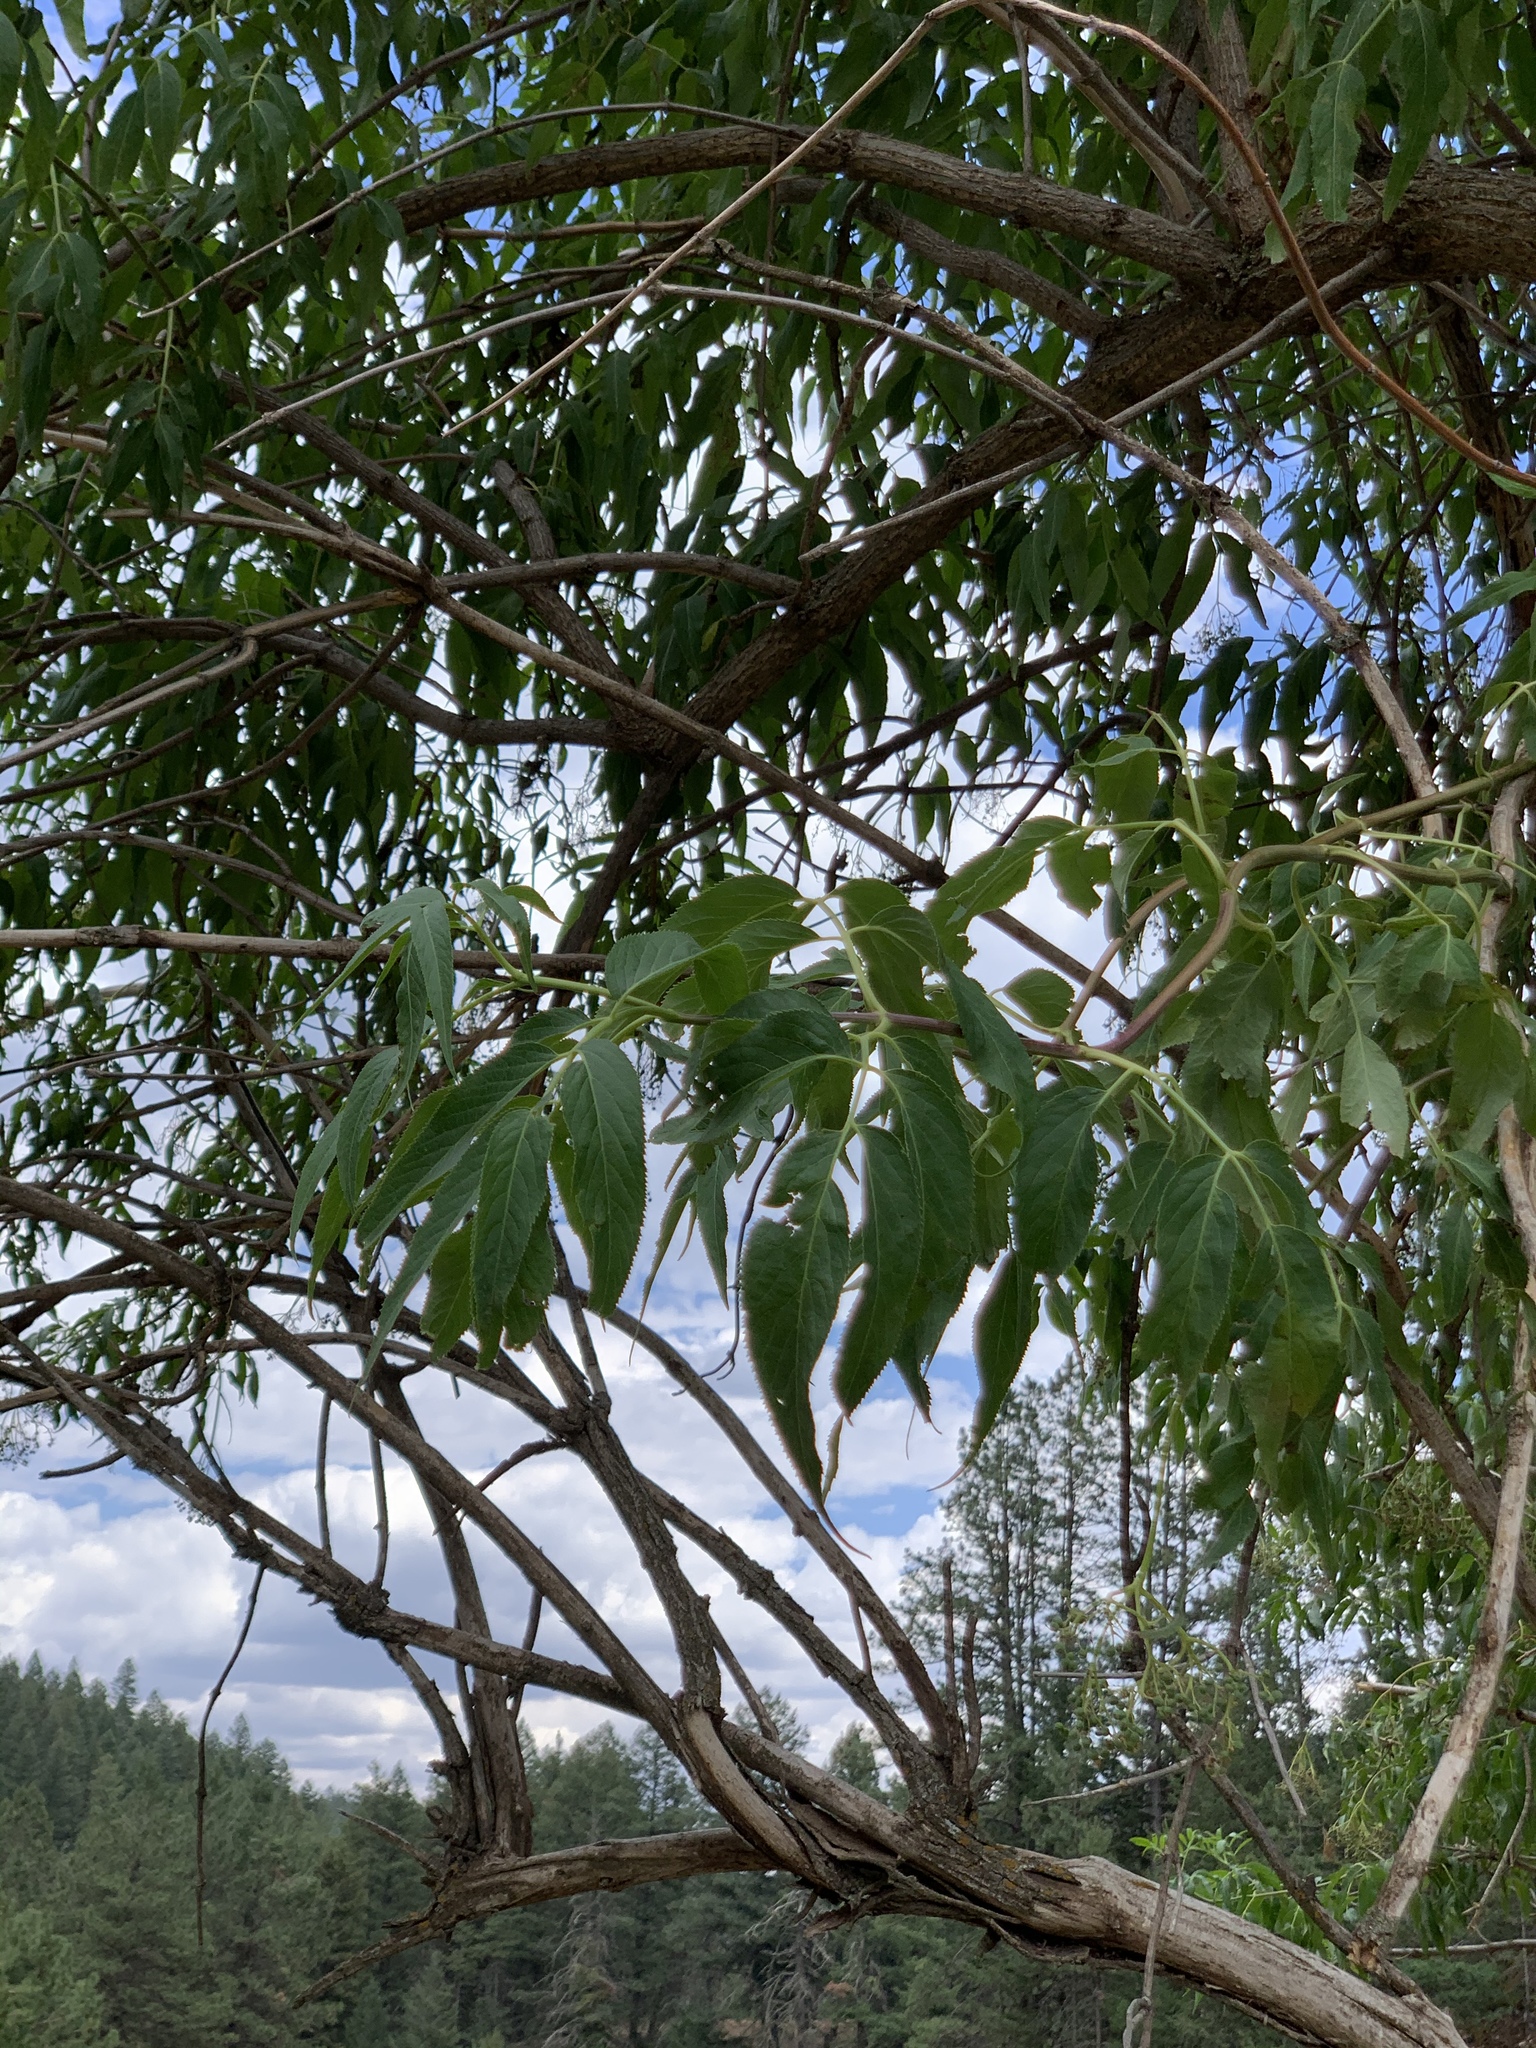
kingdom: Plantae
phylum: Tracheophyta
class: Magnoliopsida
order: Dipsacales
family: Viburnaceae
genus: Sambucus
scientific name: Sambucus cerulea
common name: Blue elder
